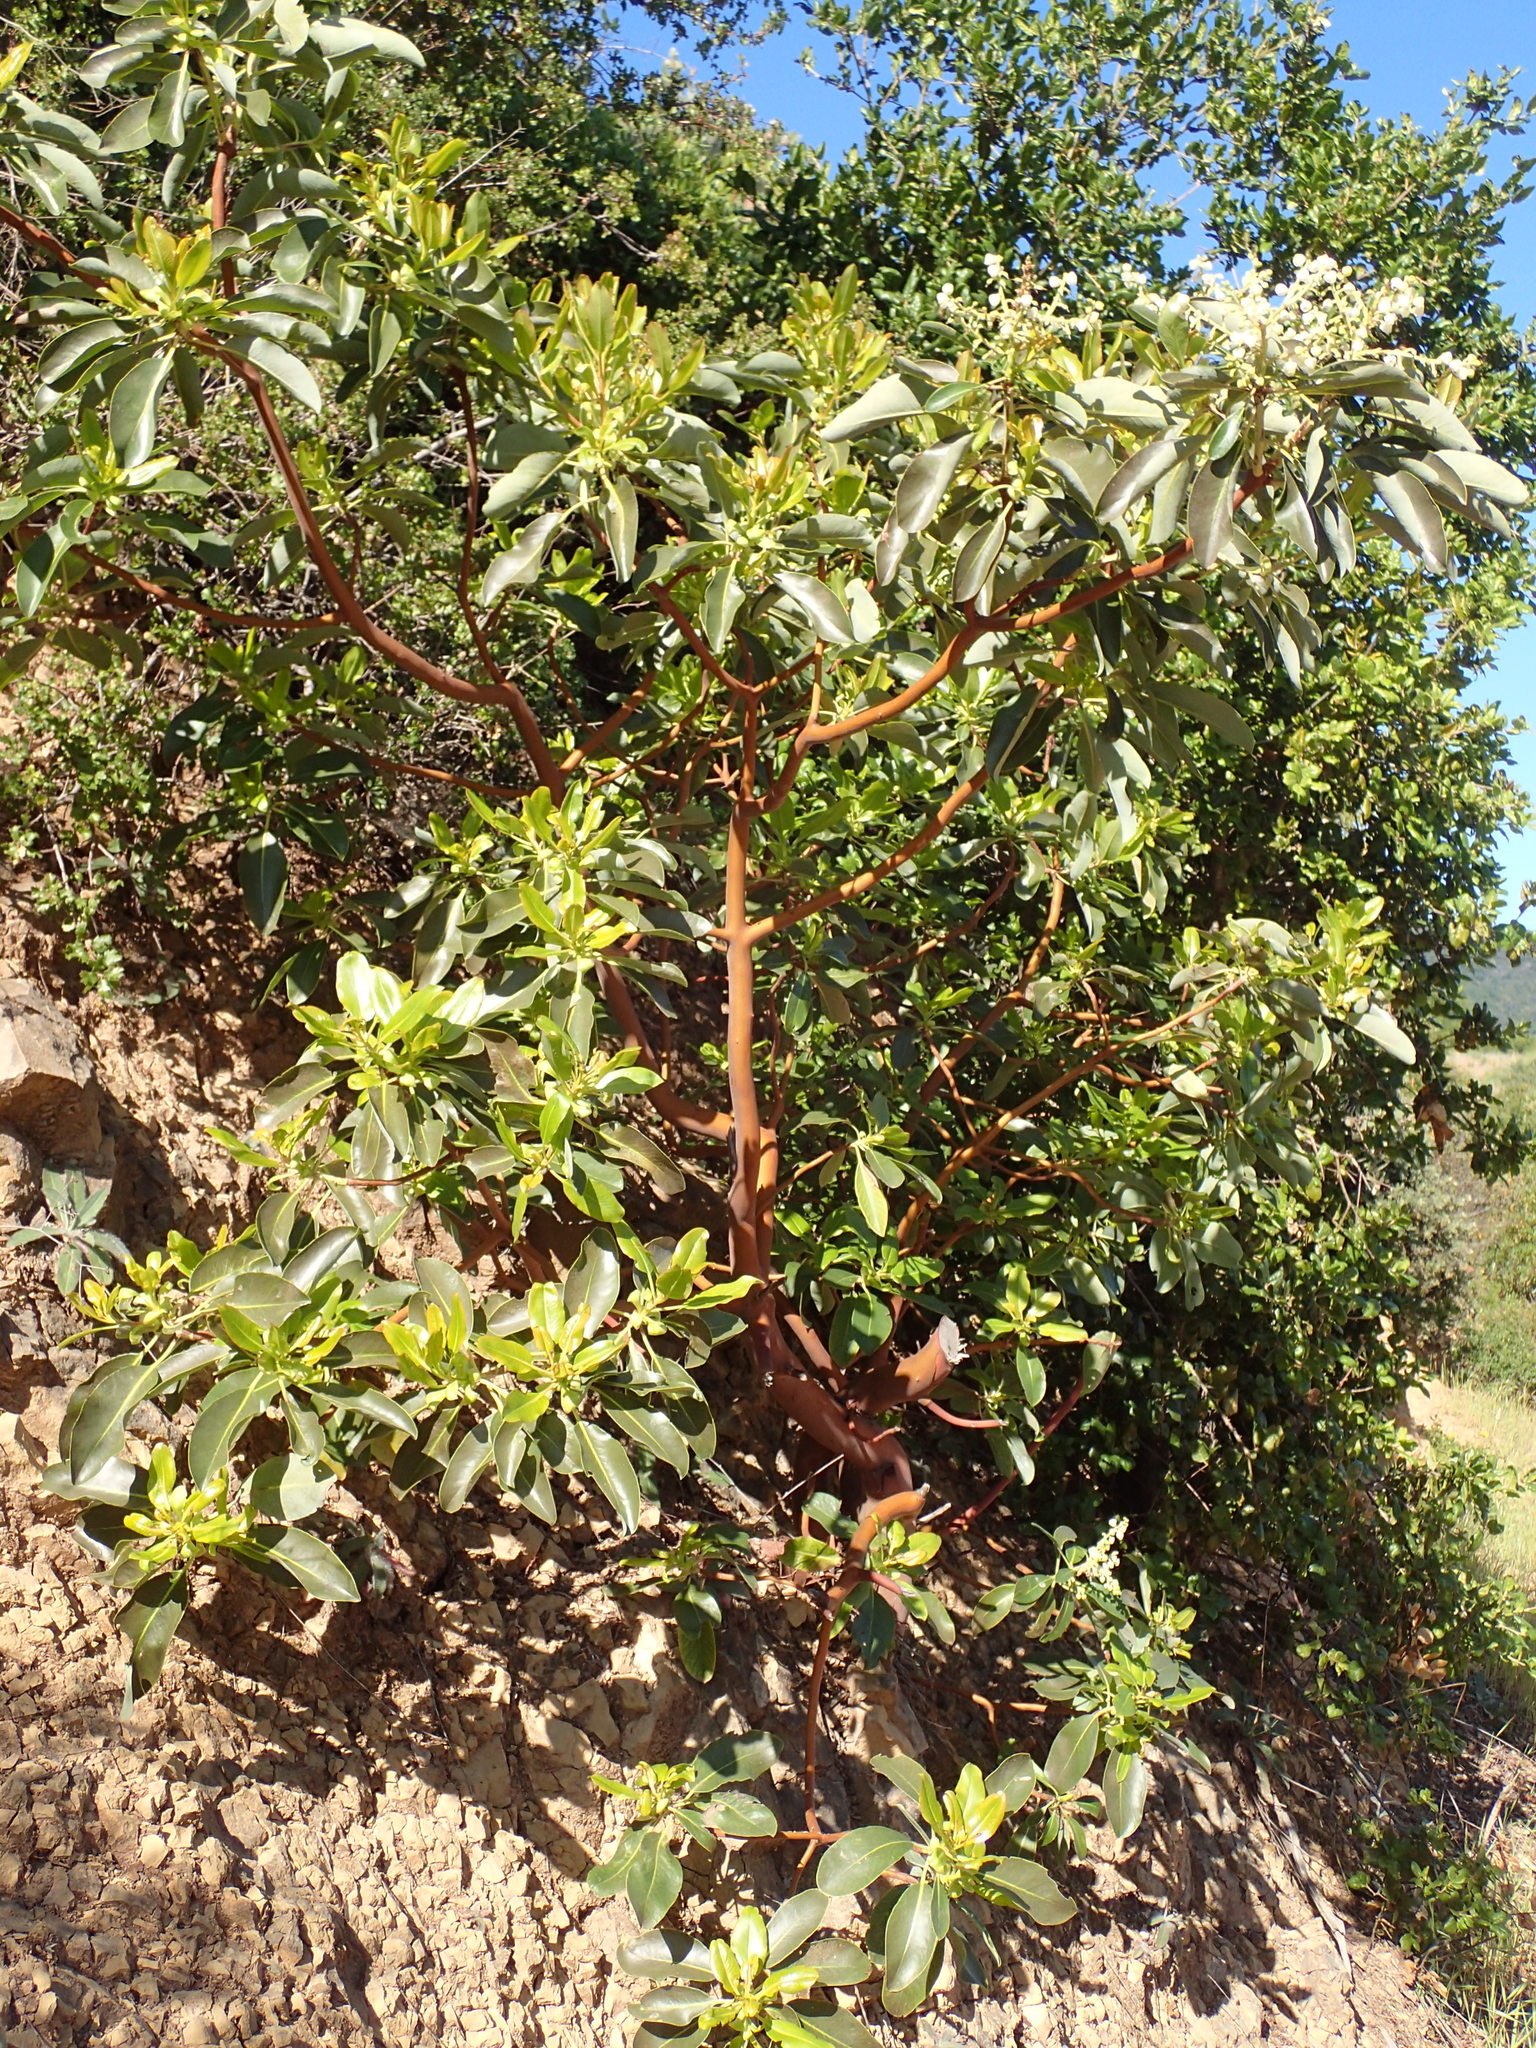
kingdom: Plantae
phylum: Tracheophyta
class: Magnoliopsida
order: Ericales
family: Ericaceae
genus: Arbutus
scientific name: Arbutus menziesii
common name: Pacific madrone
